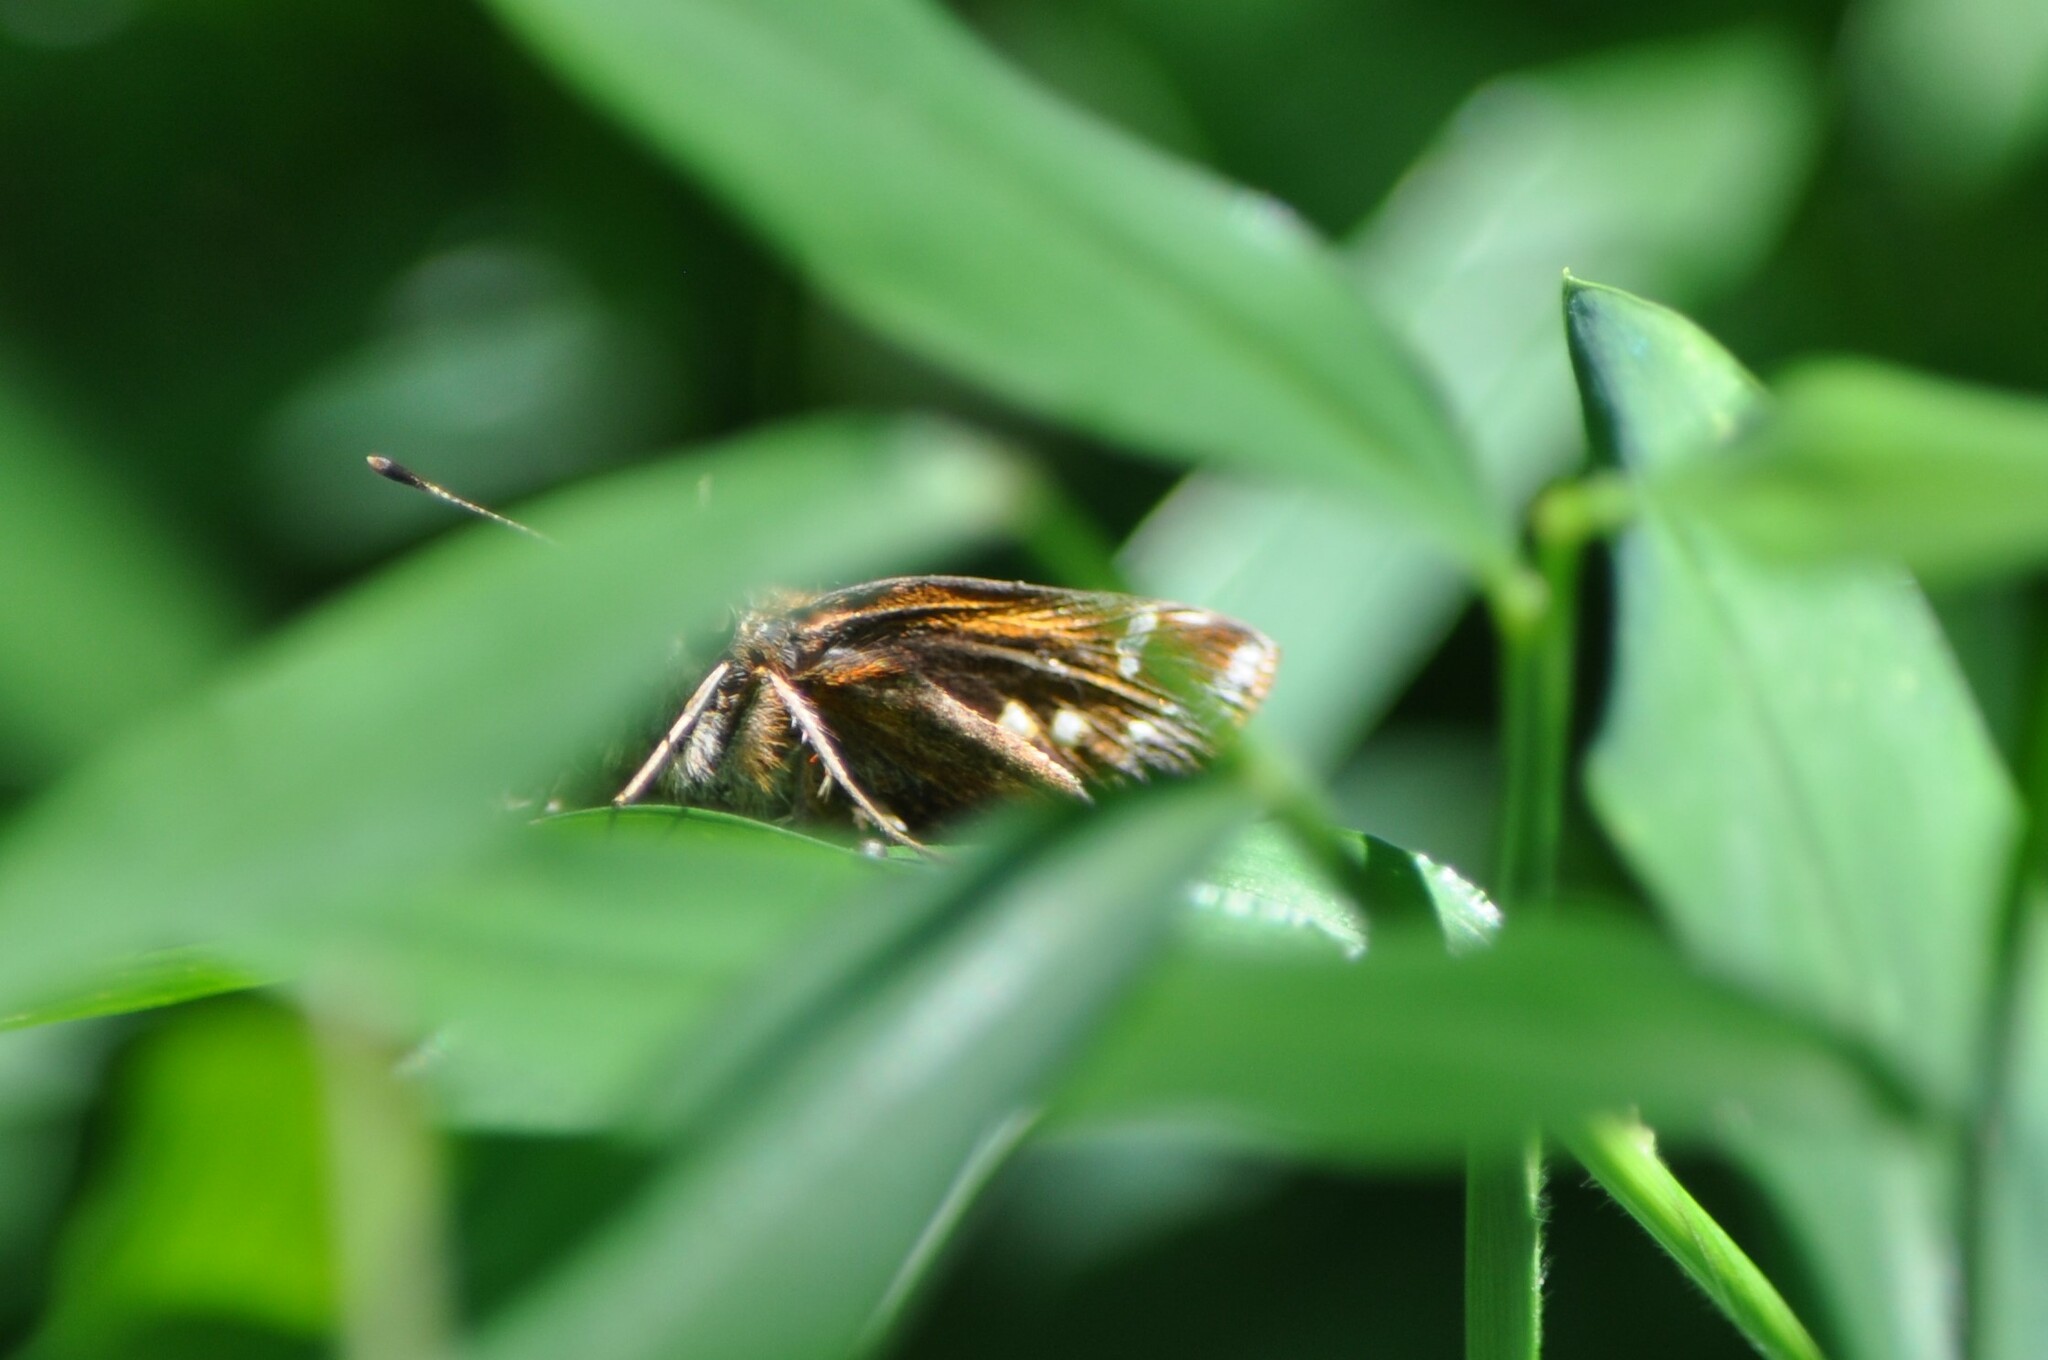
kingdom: Animalia
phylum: Arthropoda
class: Insecta
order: Lepidoptera
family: Hesperiidae
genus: Lon
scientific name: Lon zabulon
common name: Zabulon skipper
